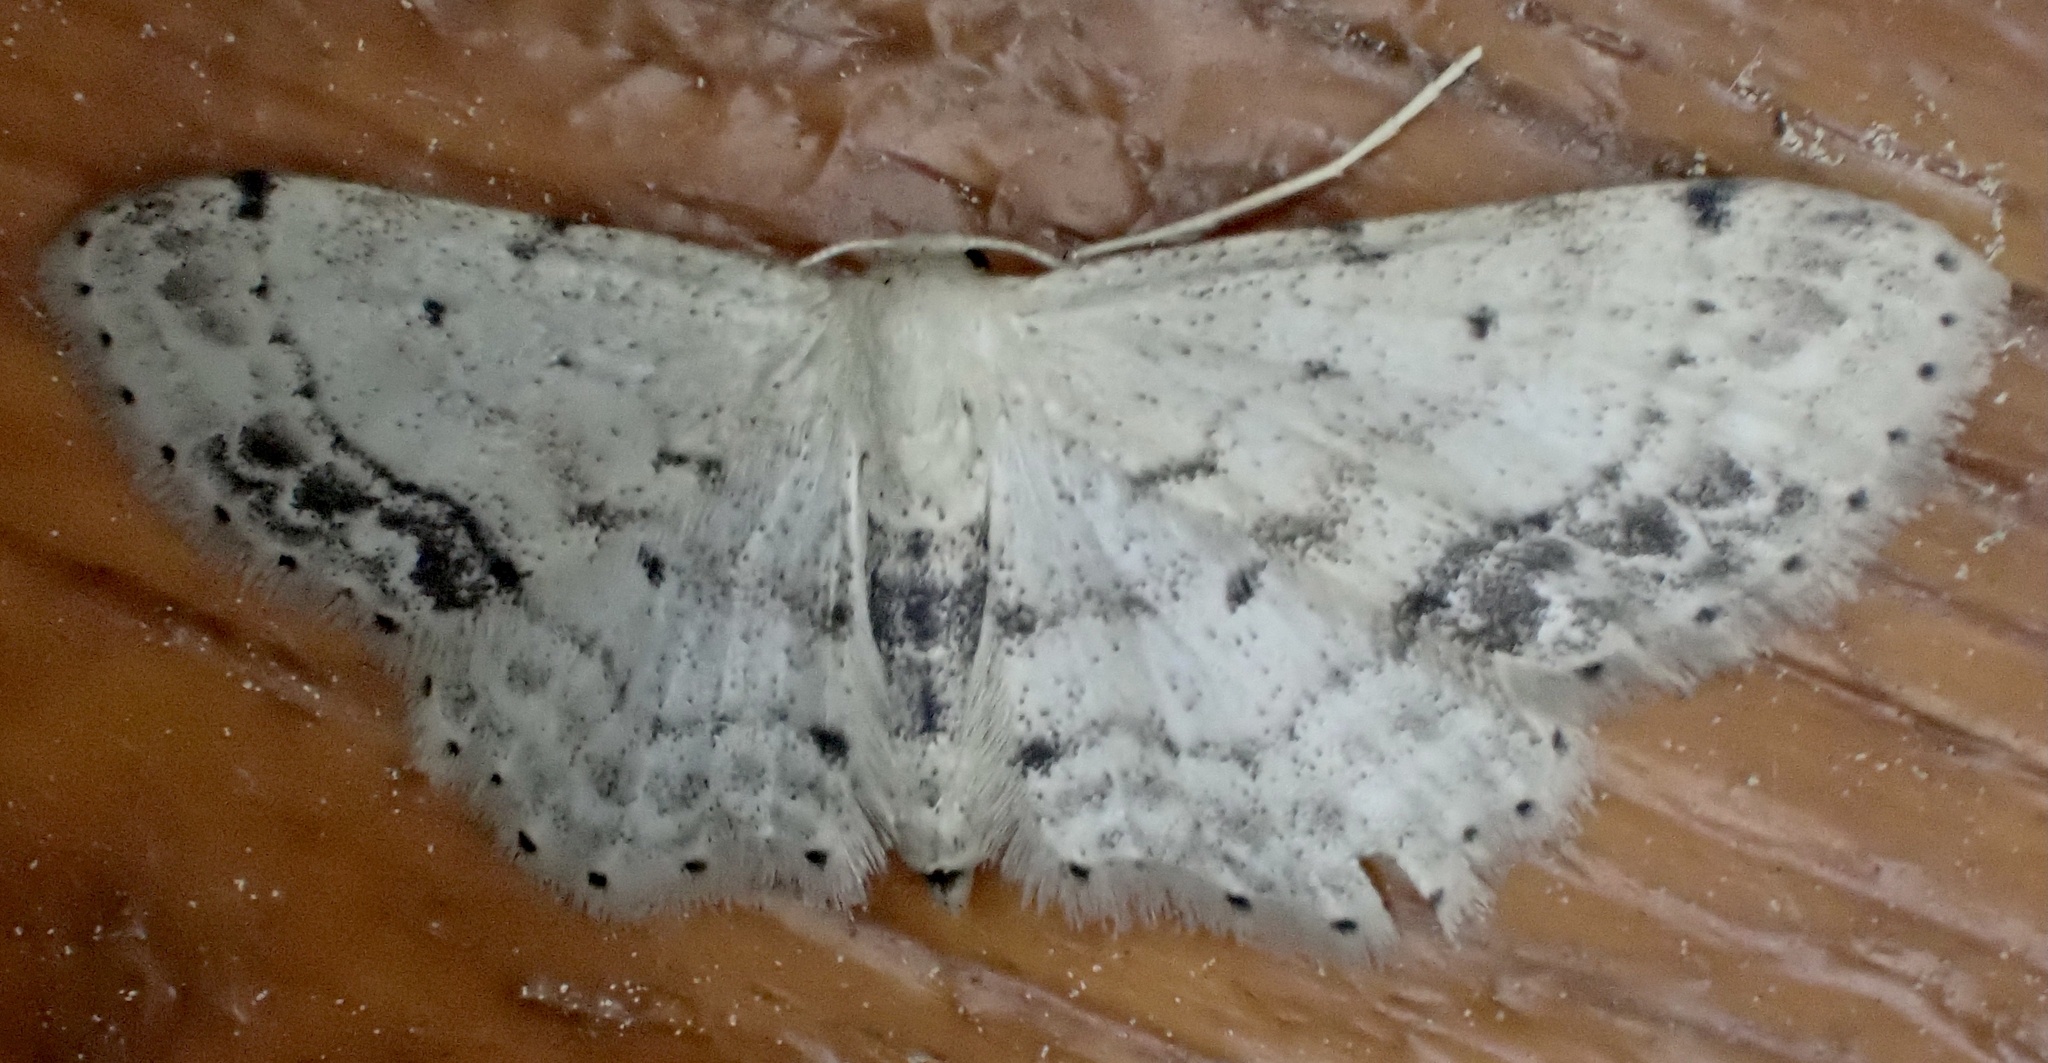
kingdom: Animalia
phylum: Arthropoda
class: Insecta
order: Lepidoptera
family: Geometridae
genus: Idaea
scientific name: Idaea dimidiata
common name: Single-dotted wave
